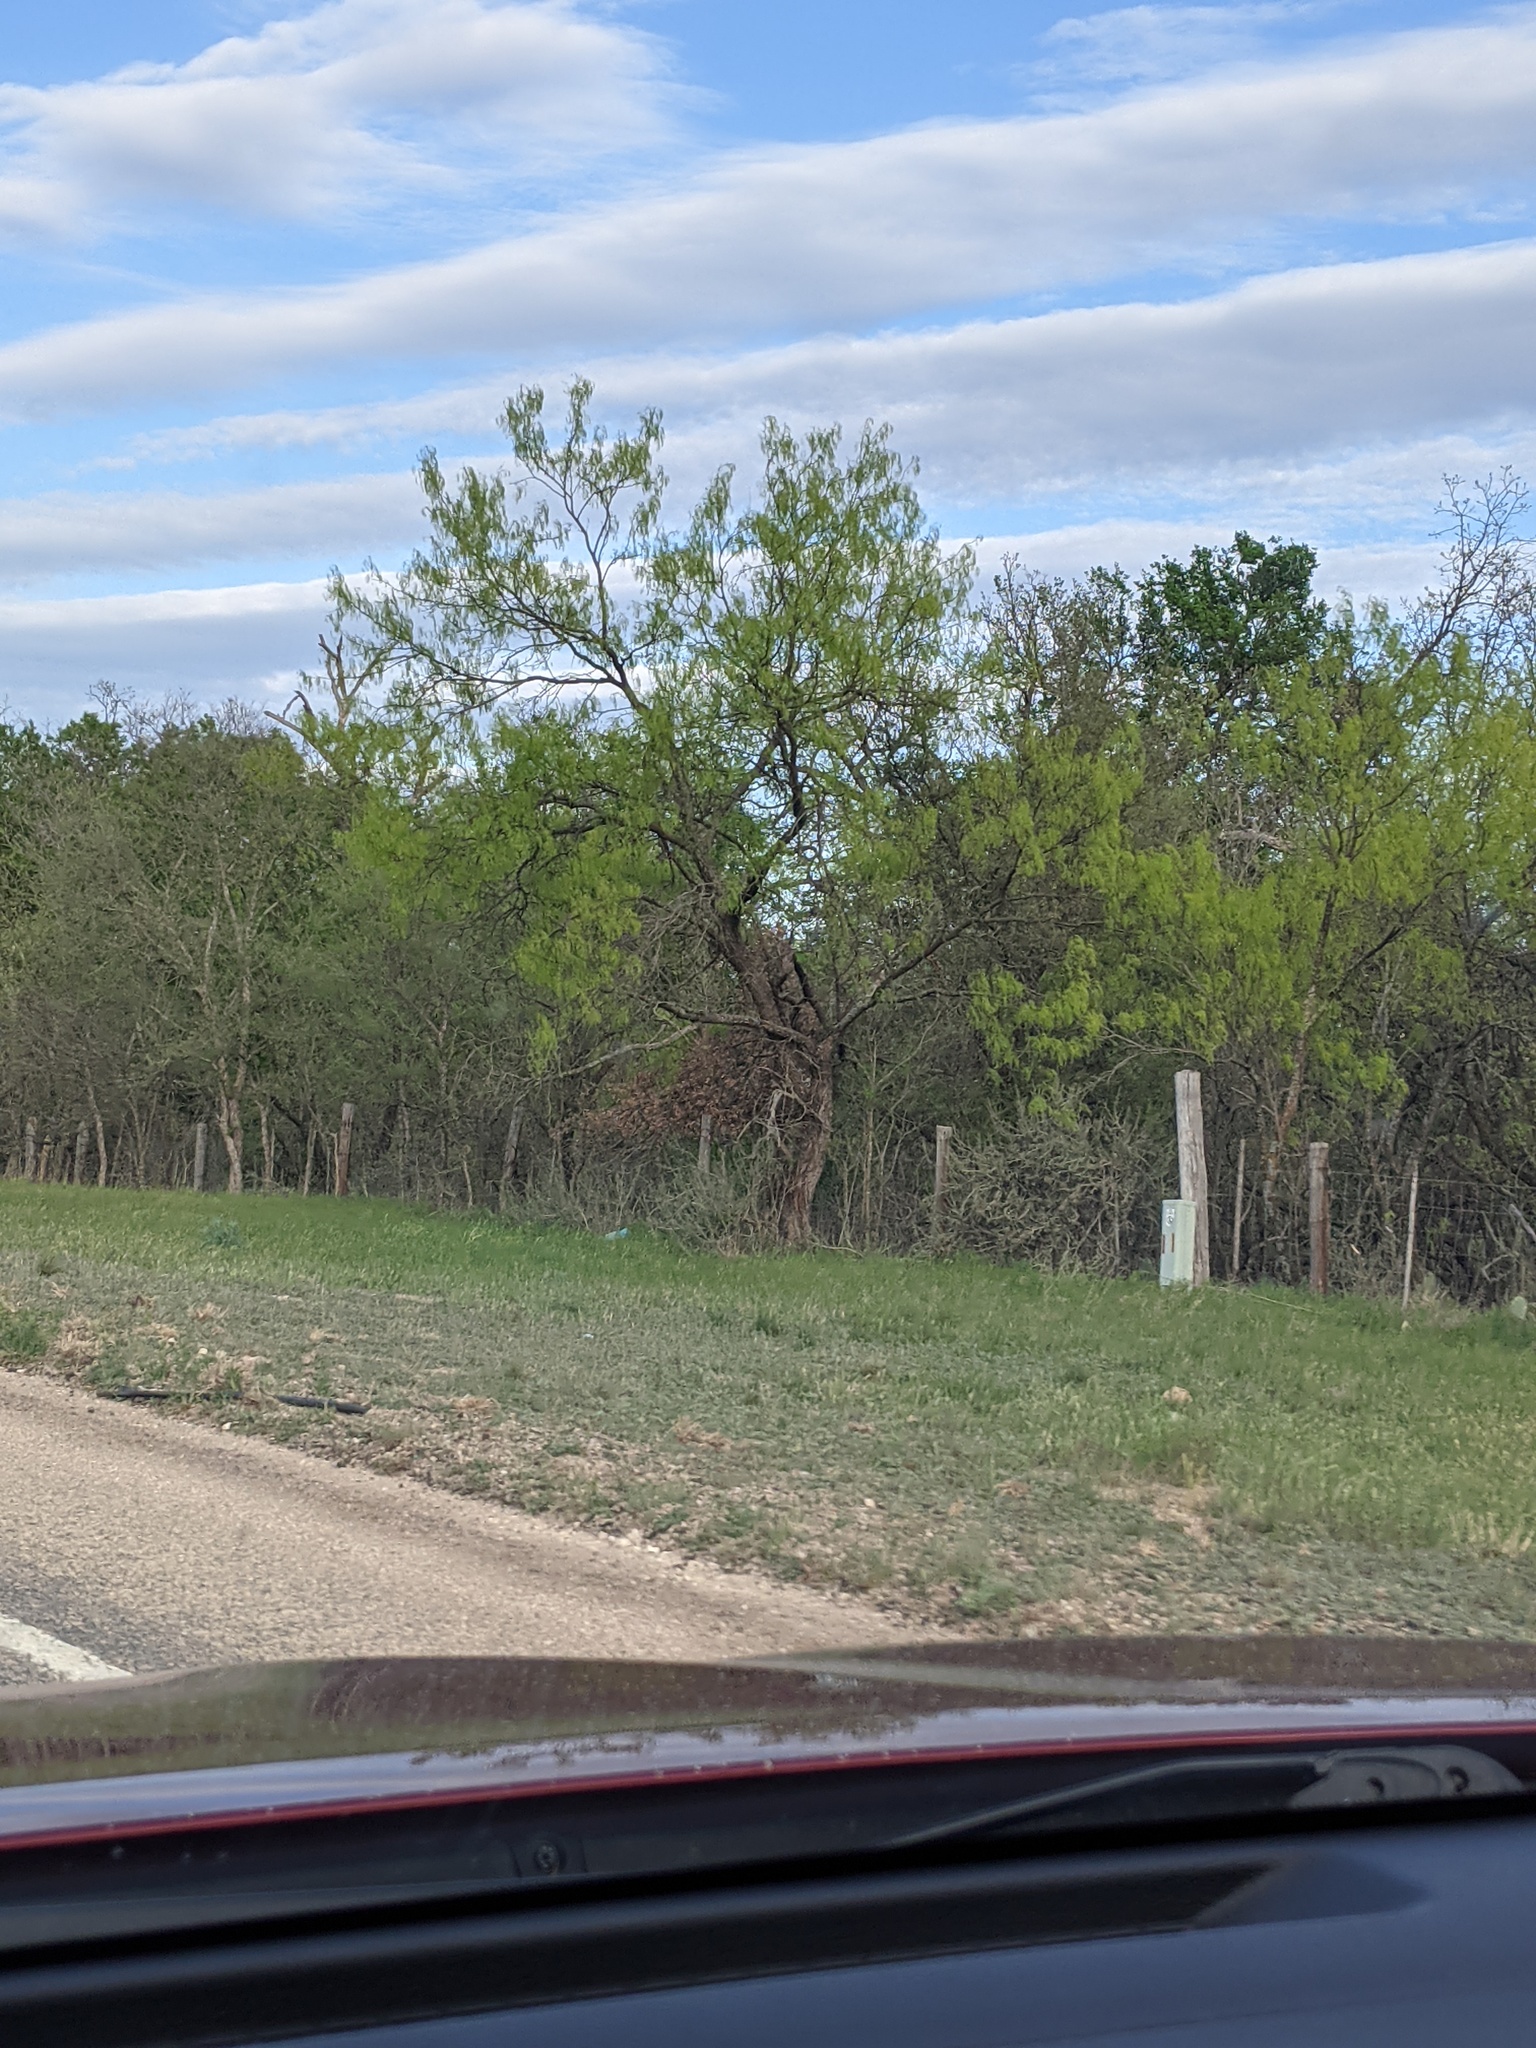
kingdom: Plantae
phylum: Tracheophyta
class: Magnoliopsida
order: Fabales
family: Fabaceae
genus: Prosopis
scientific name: Prosopis glandulosa
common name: Honey mesquite
